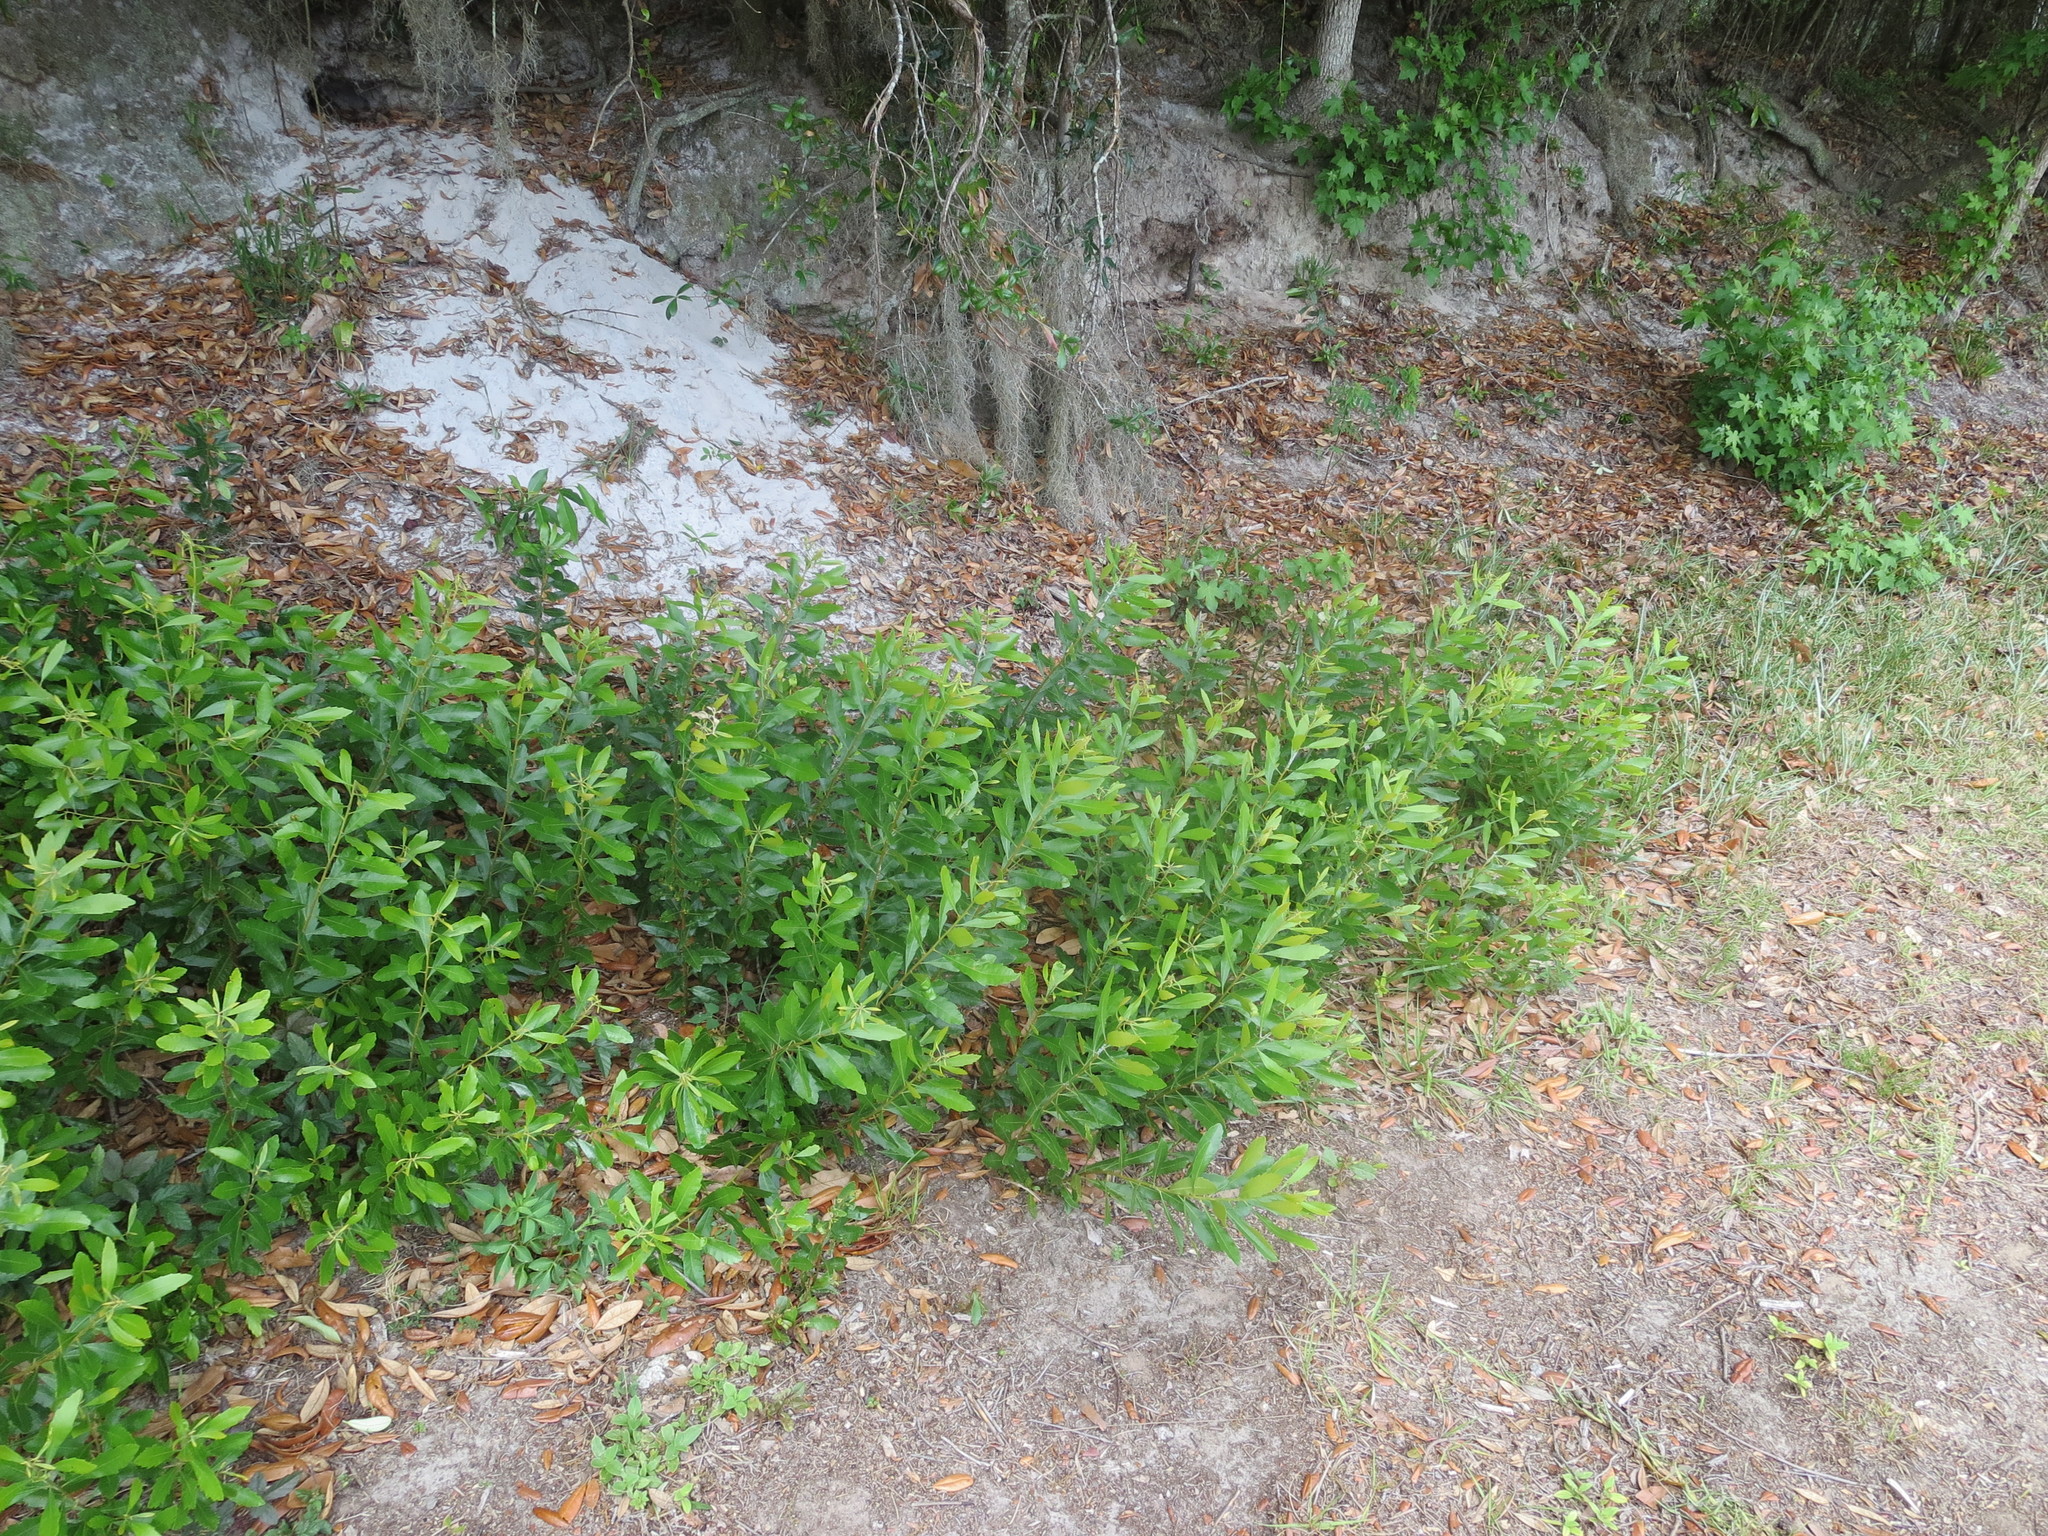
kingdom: Plantae
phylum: Tracheophyta
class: Magnoliopsida
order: Fagales
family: Myricaceae
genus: Morella
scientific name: Morella cerifera
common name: Wax myrtle
